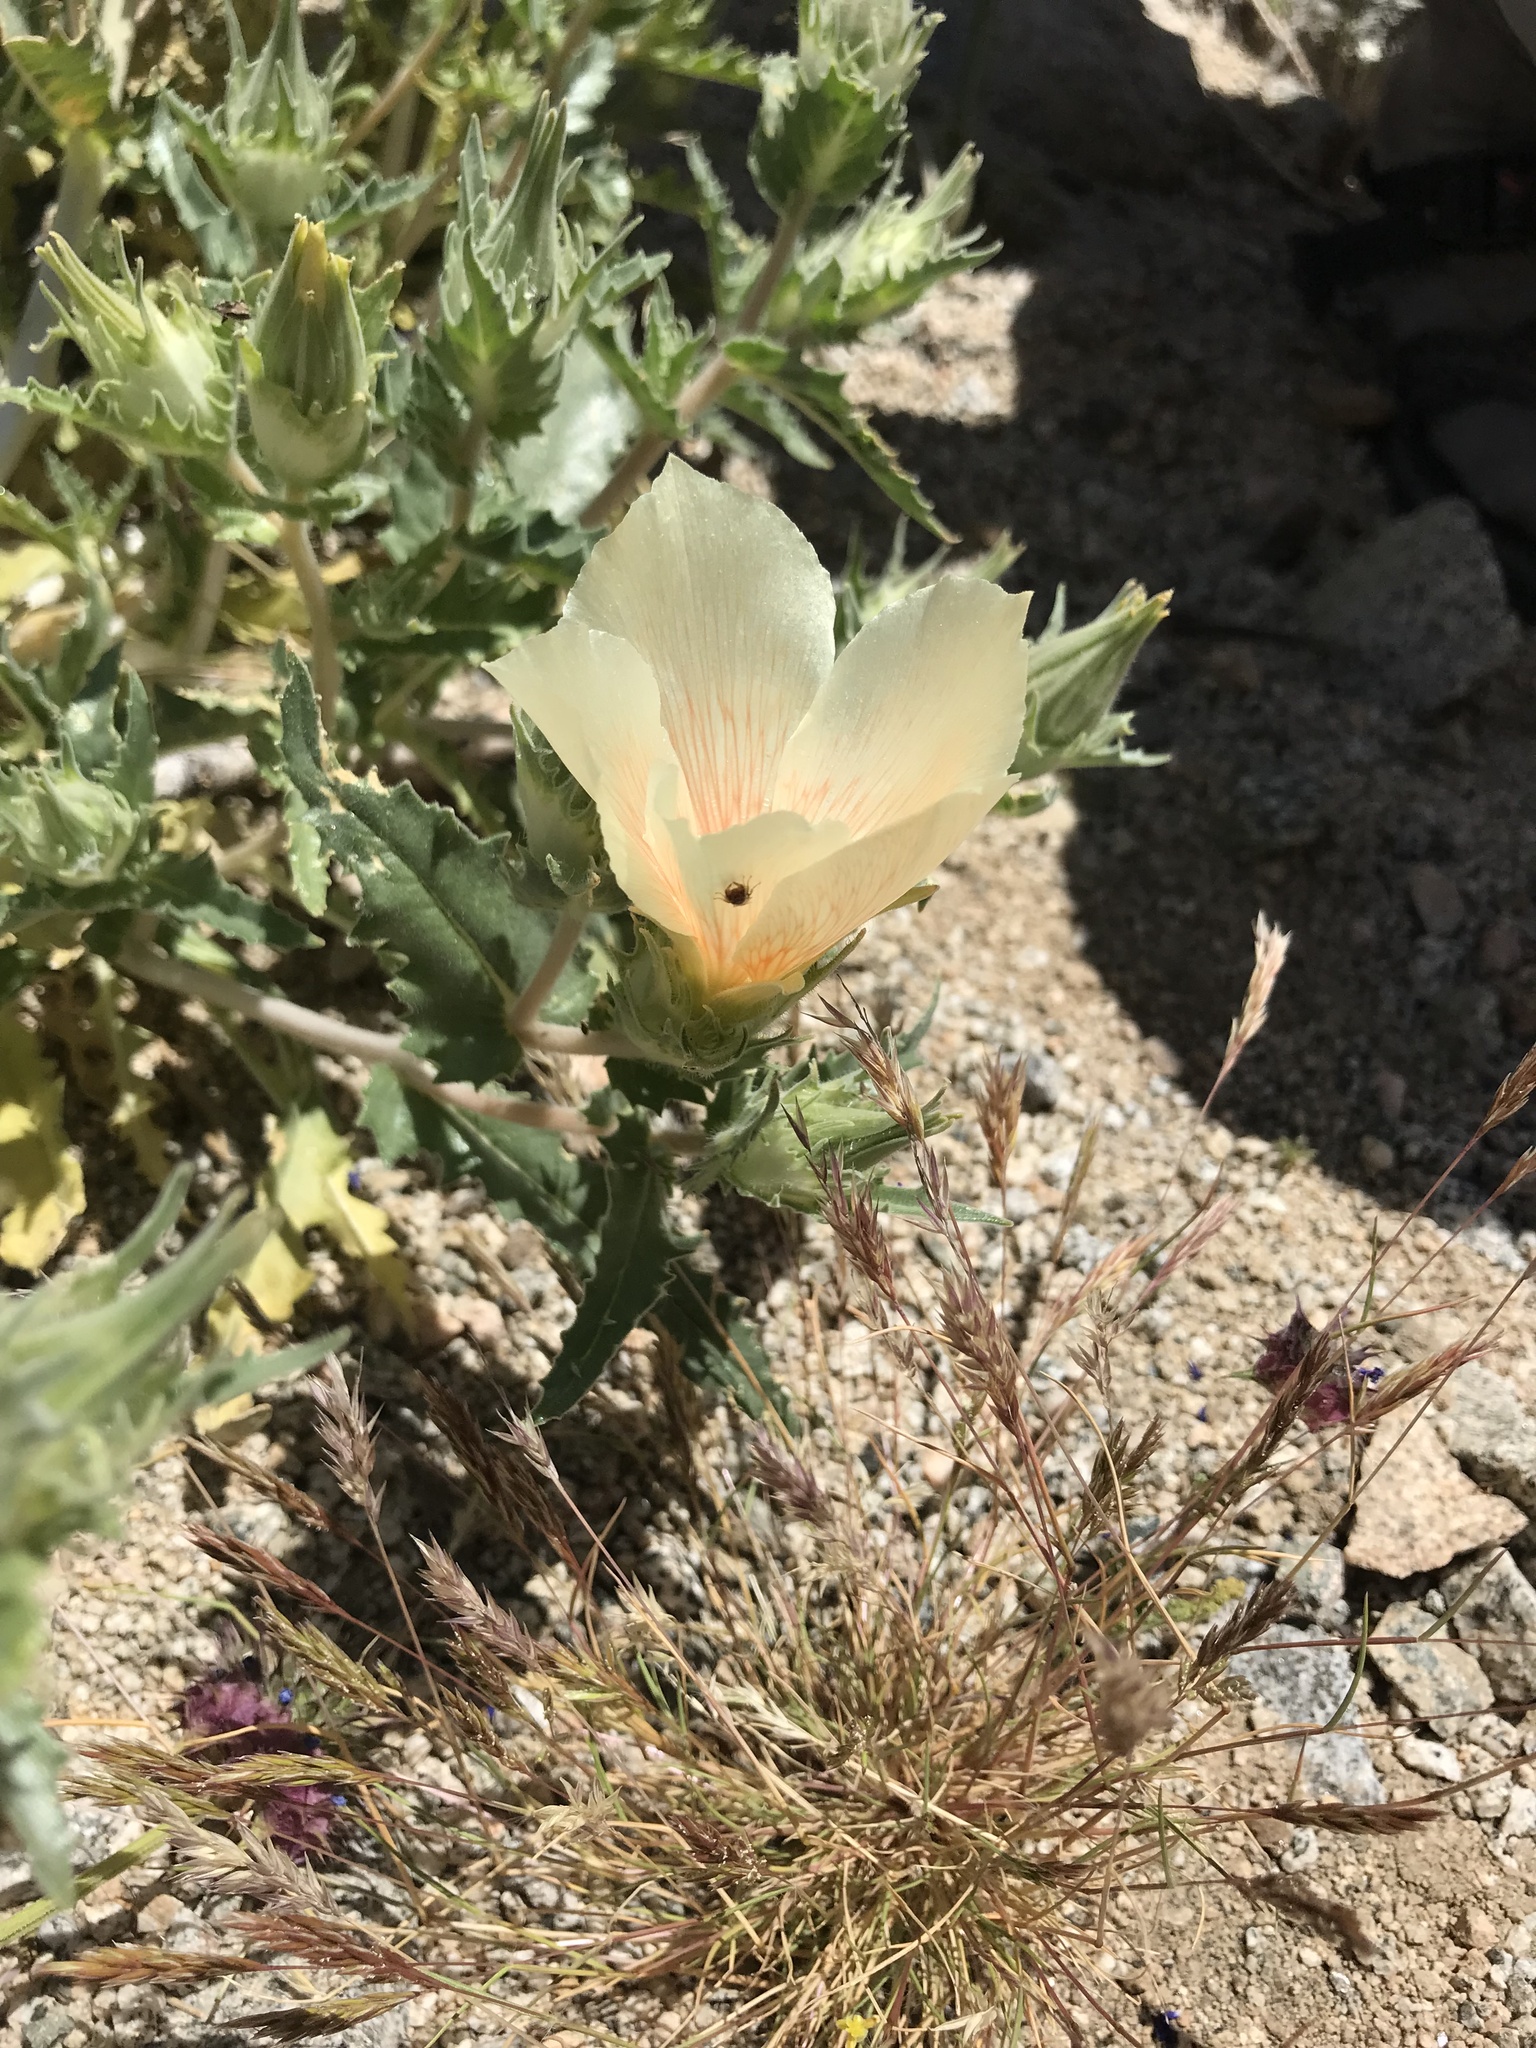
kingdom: Plantae
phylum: Tracheophyta
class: Magnoliopsida
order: Cornales
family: Loasaceae
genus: Mentzelia
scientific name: Mentzelia involucrata
